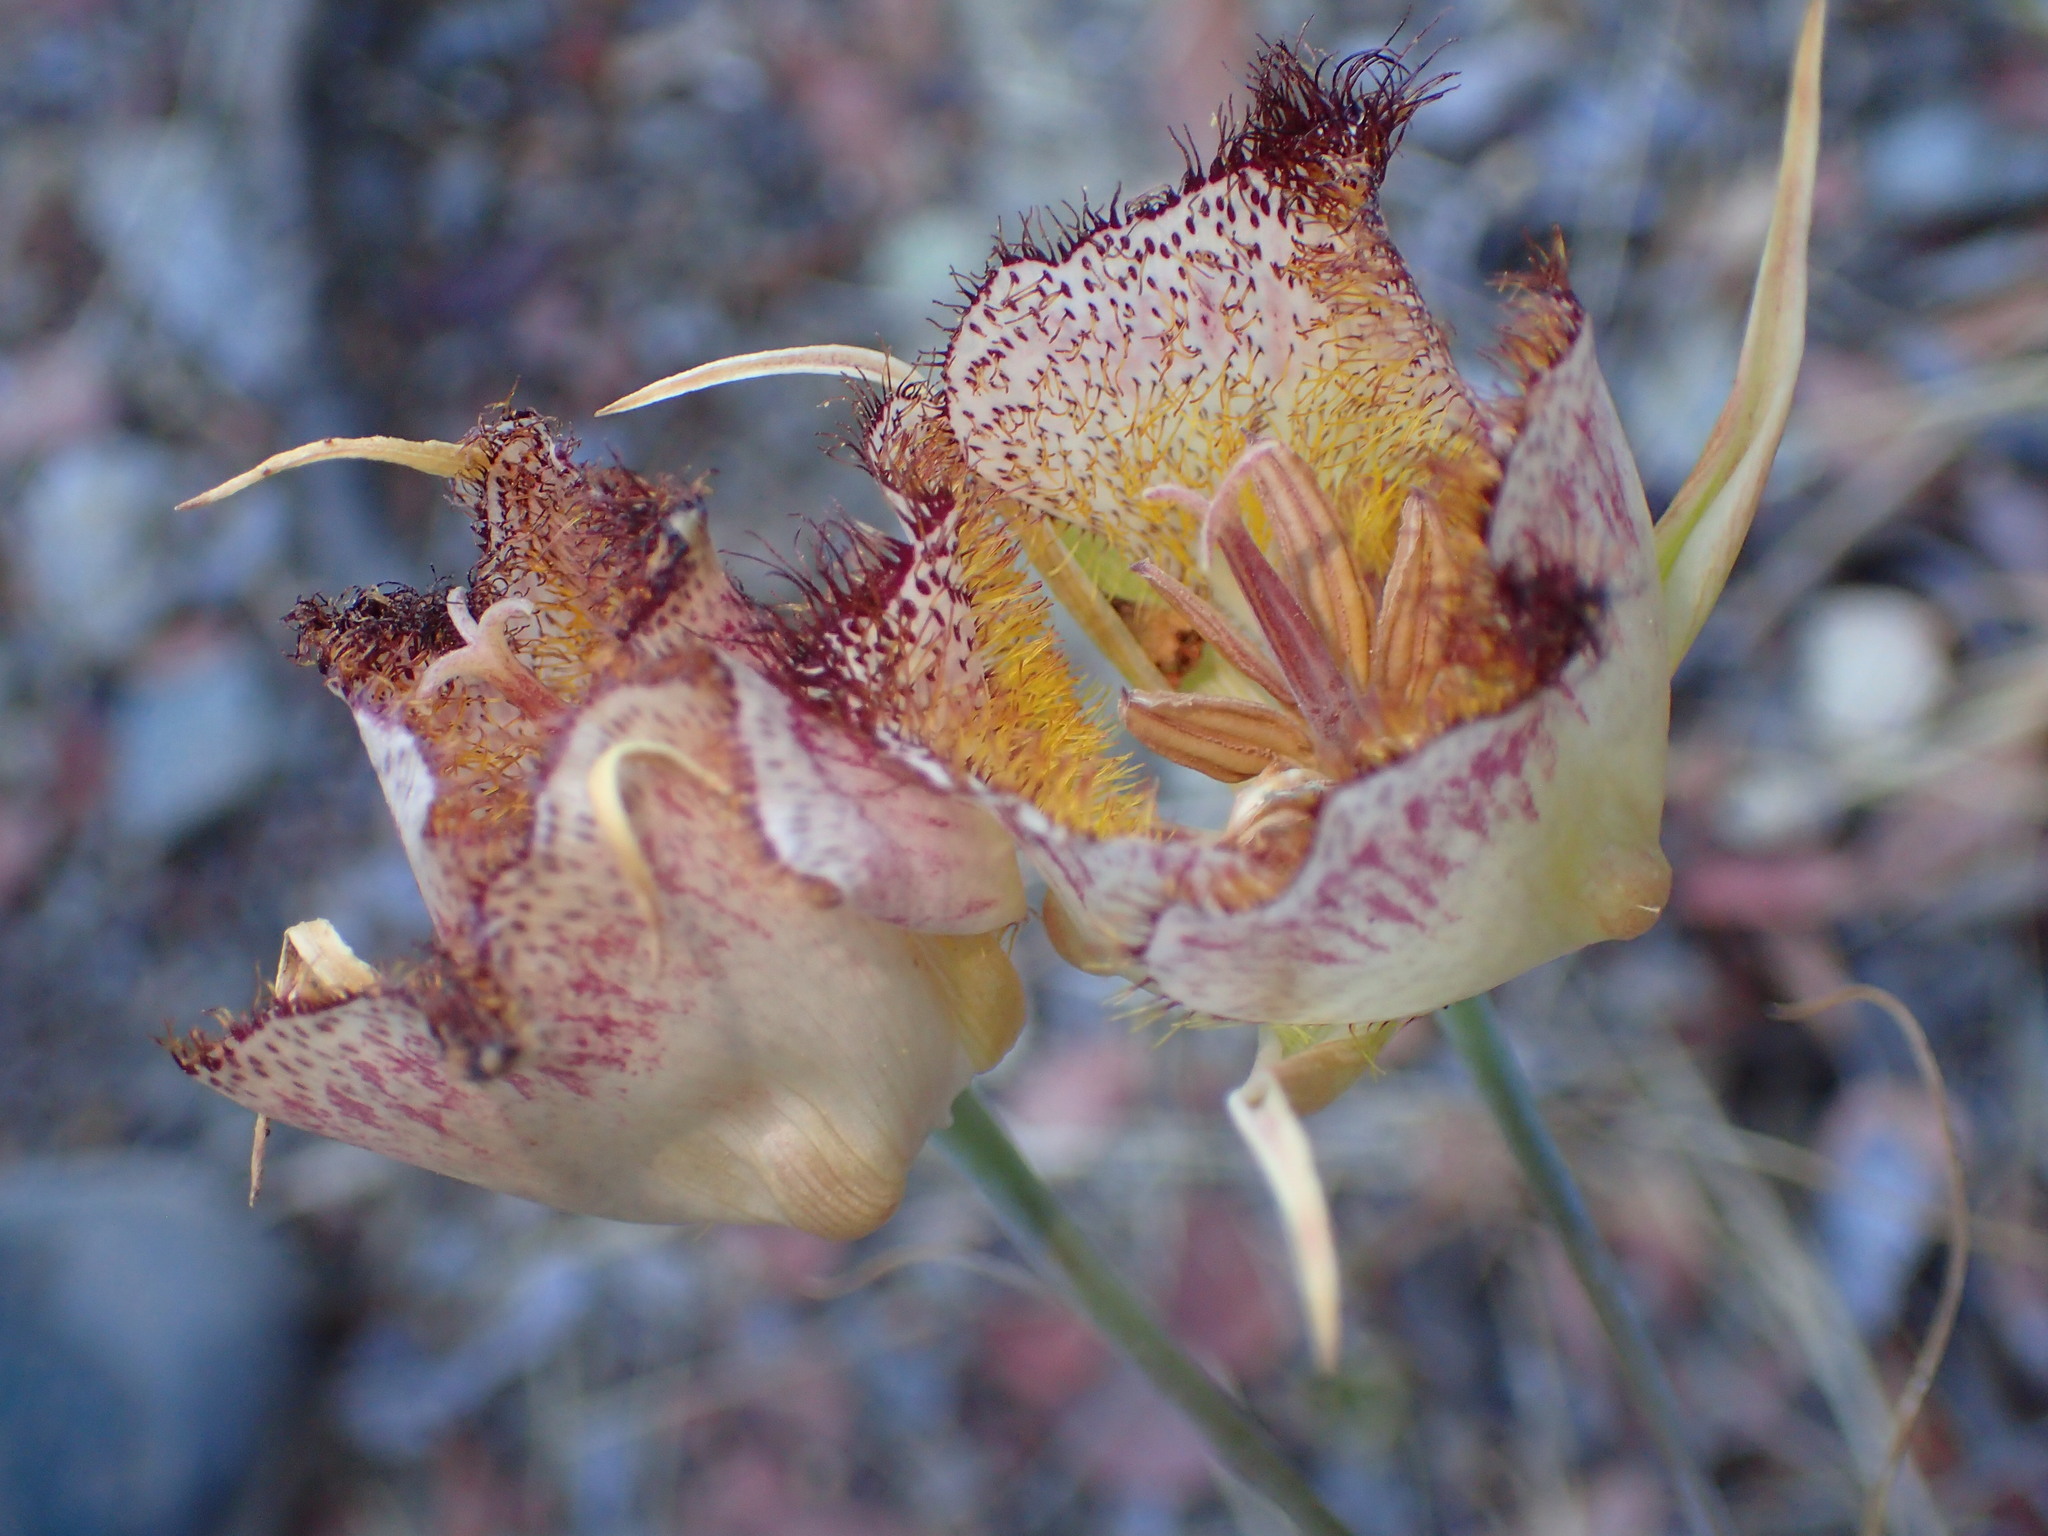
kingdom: Plantae
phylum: Tracheophyta
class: Liliopsida
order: Liliales
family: Liliaceae
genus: Calochortus
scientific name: Calochortus fimbriatus
